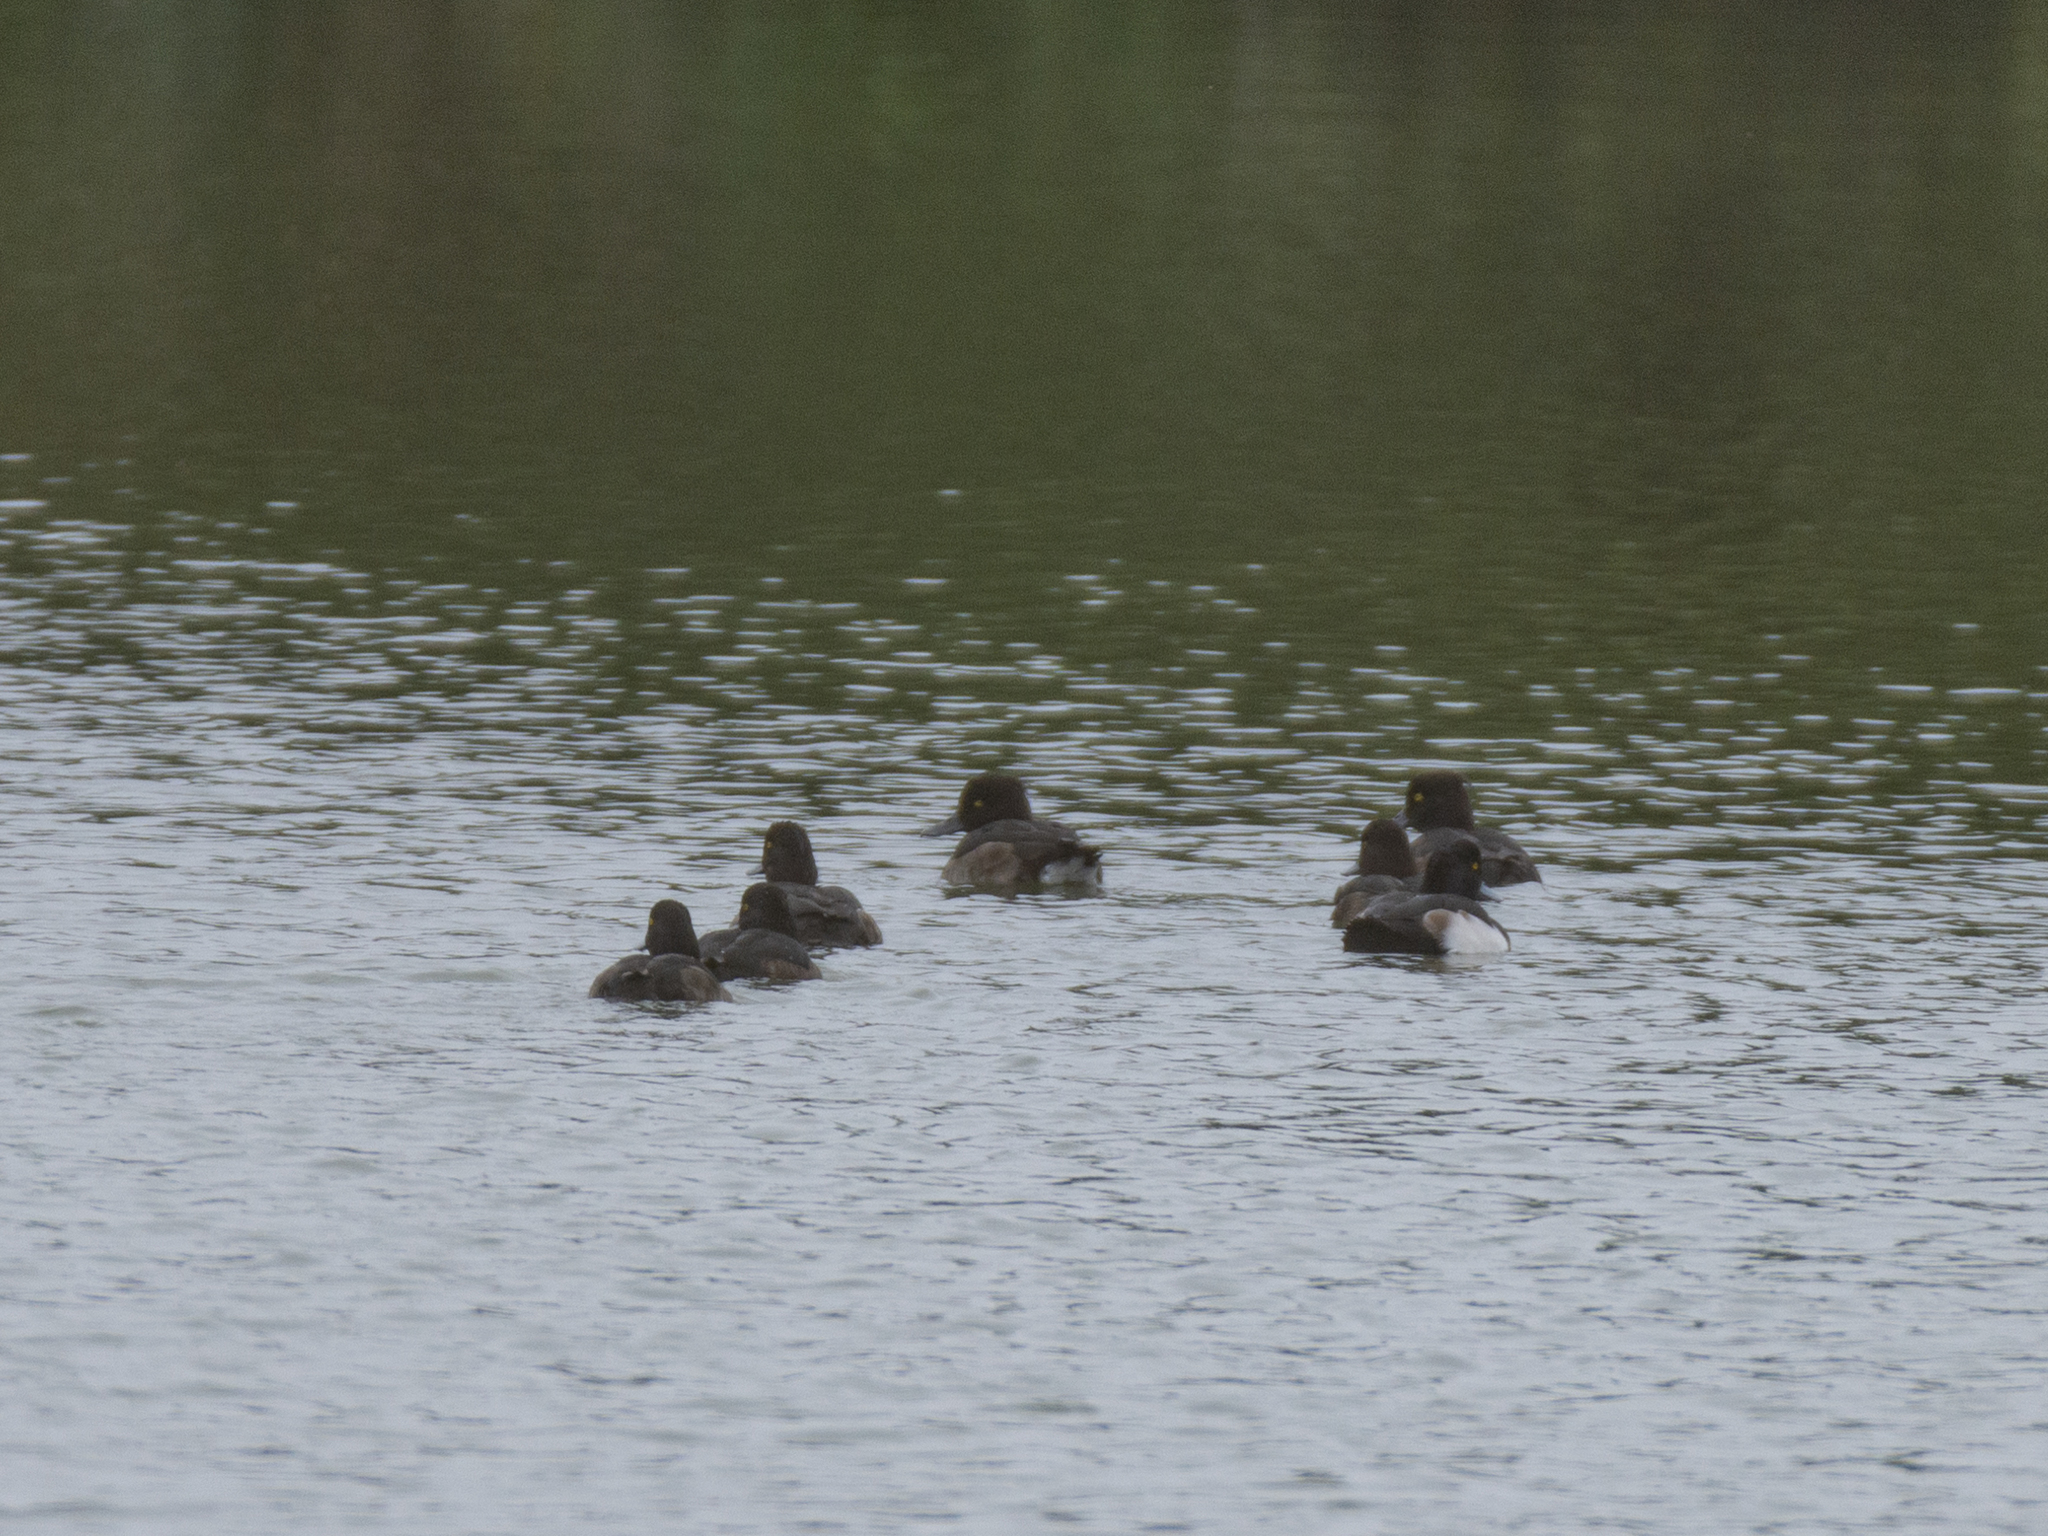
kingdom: Animalia
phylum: Chordata
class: Aves
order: Anseriformes
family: Anatidae
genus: Aythya
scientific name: Aythya fuligula
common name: Tufted duck
